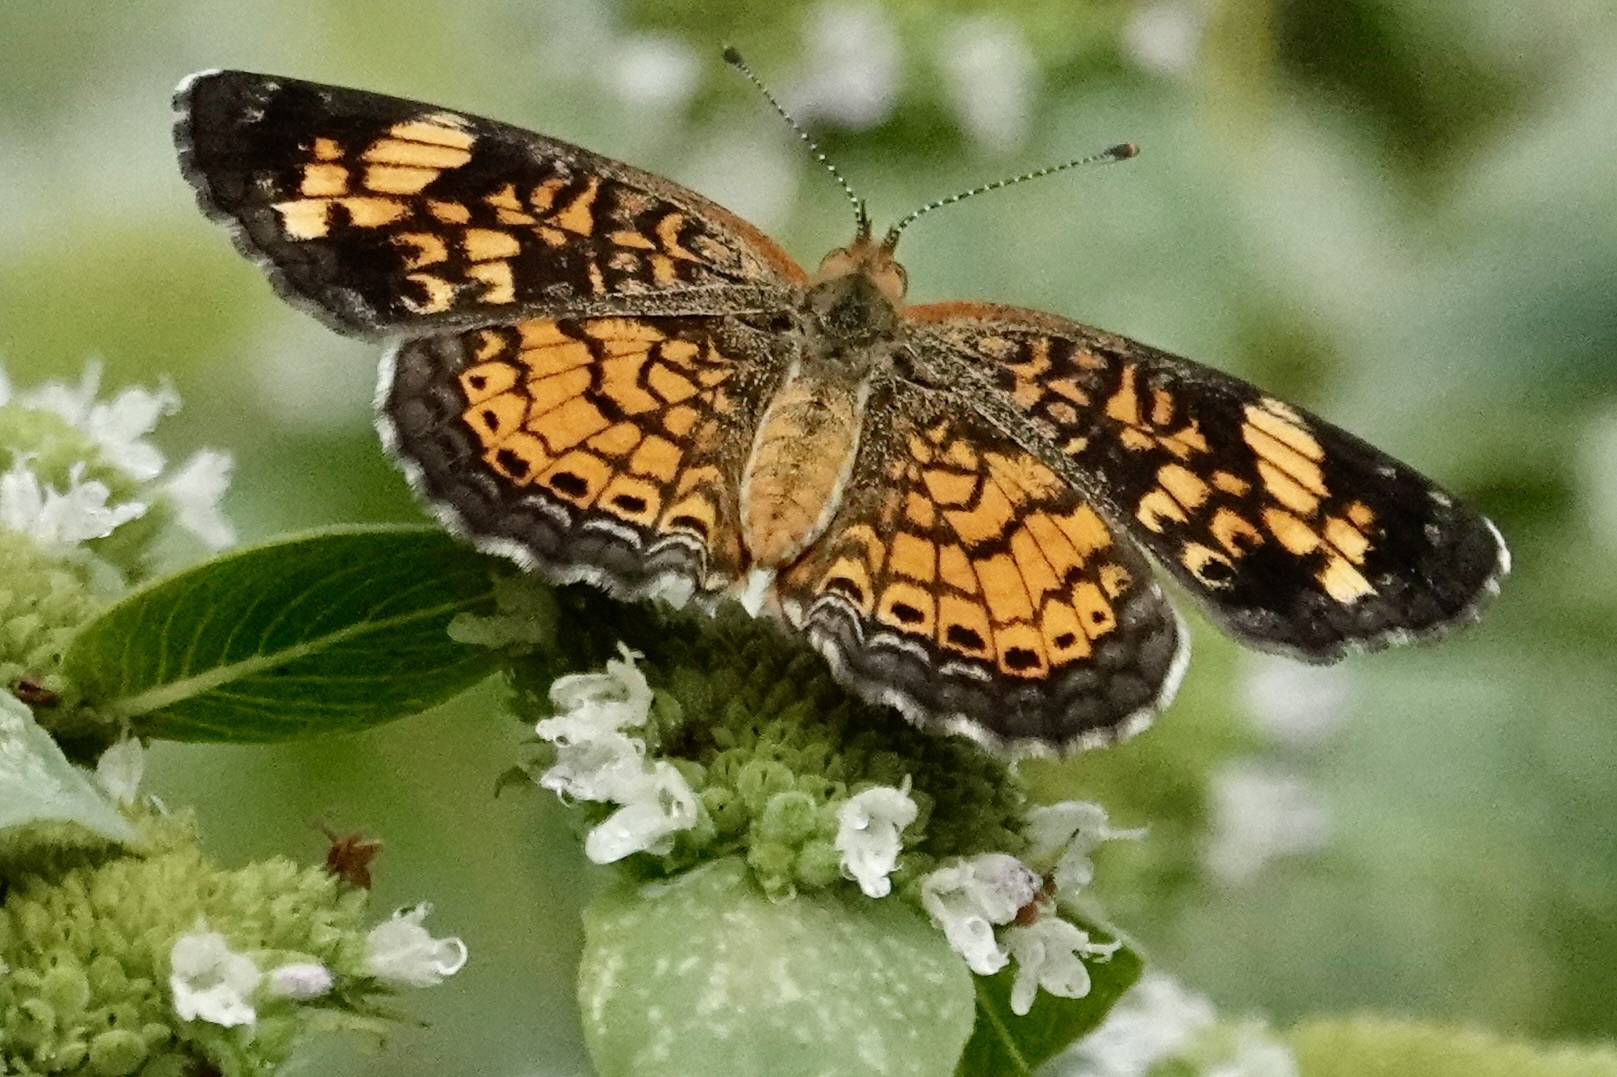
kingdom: Animalia
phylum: Arthropoda
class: Insecta
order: Lepidoptera
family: Nymphalidae
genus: Phyciodes
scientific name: Phyciodes tharos
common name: Pearl crescent
